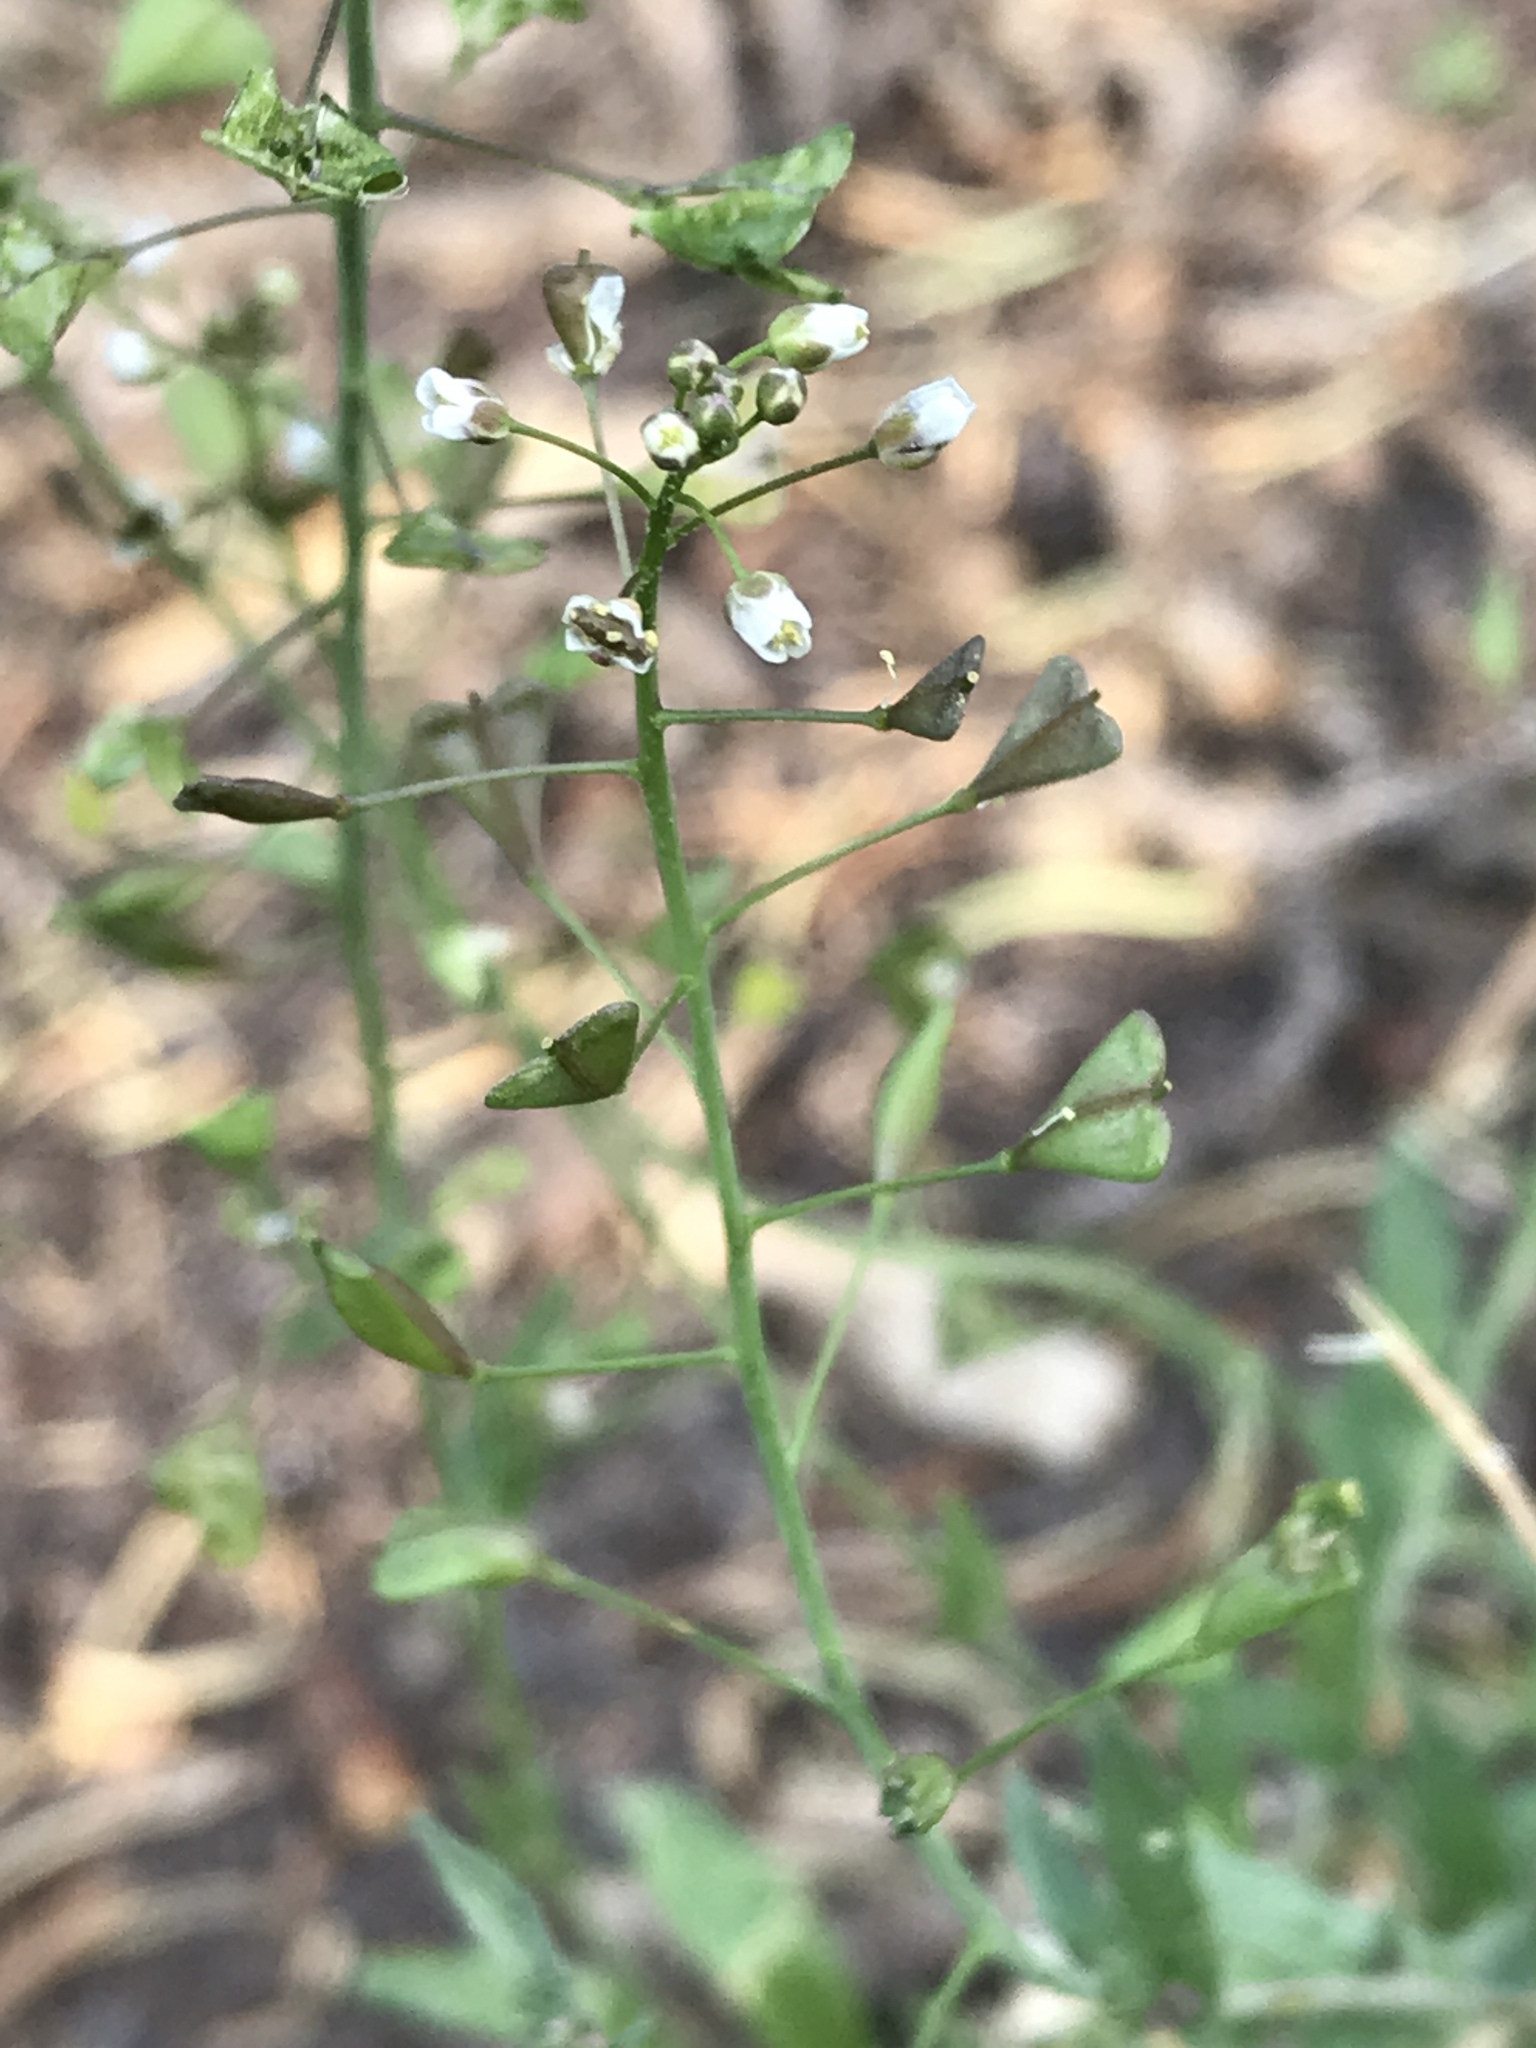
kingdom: Plantae
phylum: Tracheophyta
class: Magnoliopsida
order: Brassicales
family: Brassicaceae
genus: Capsella
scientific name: Capsella bursa-pastoris
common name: Shepherd's purse
